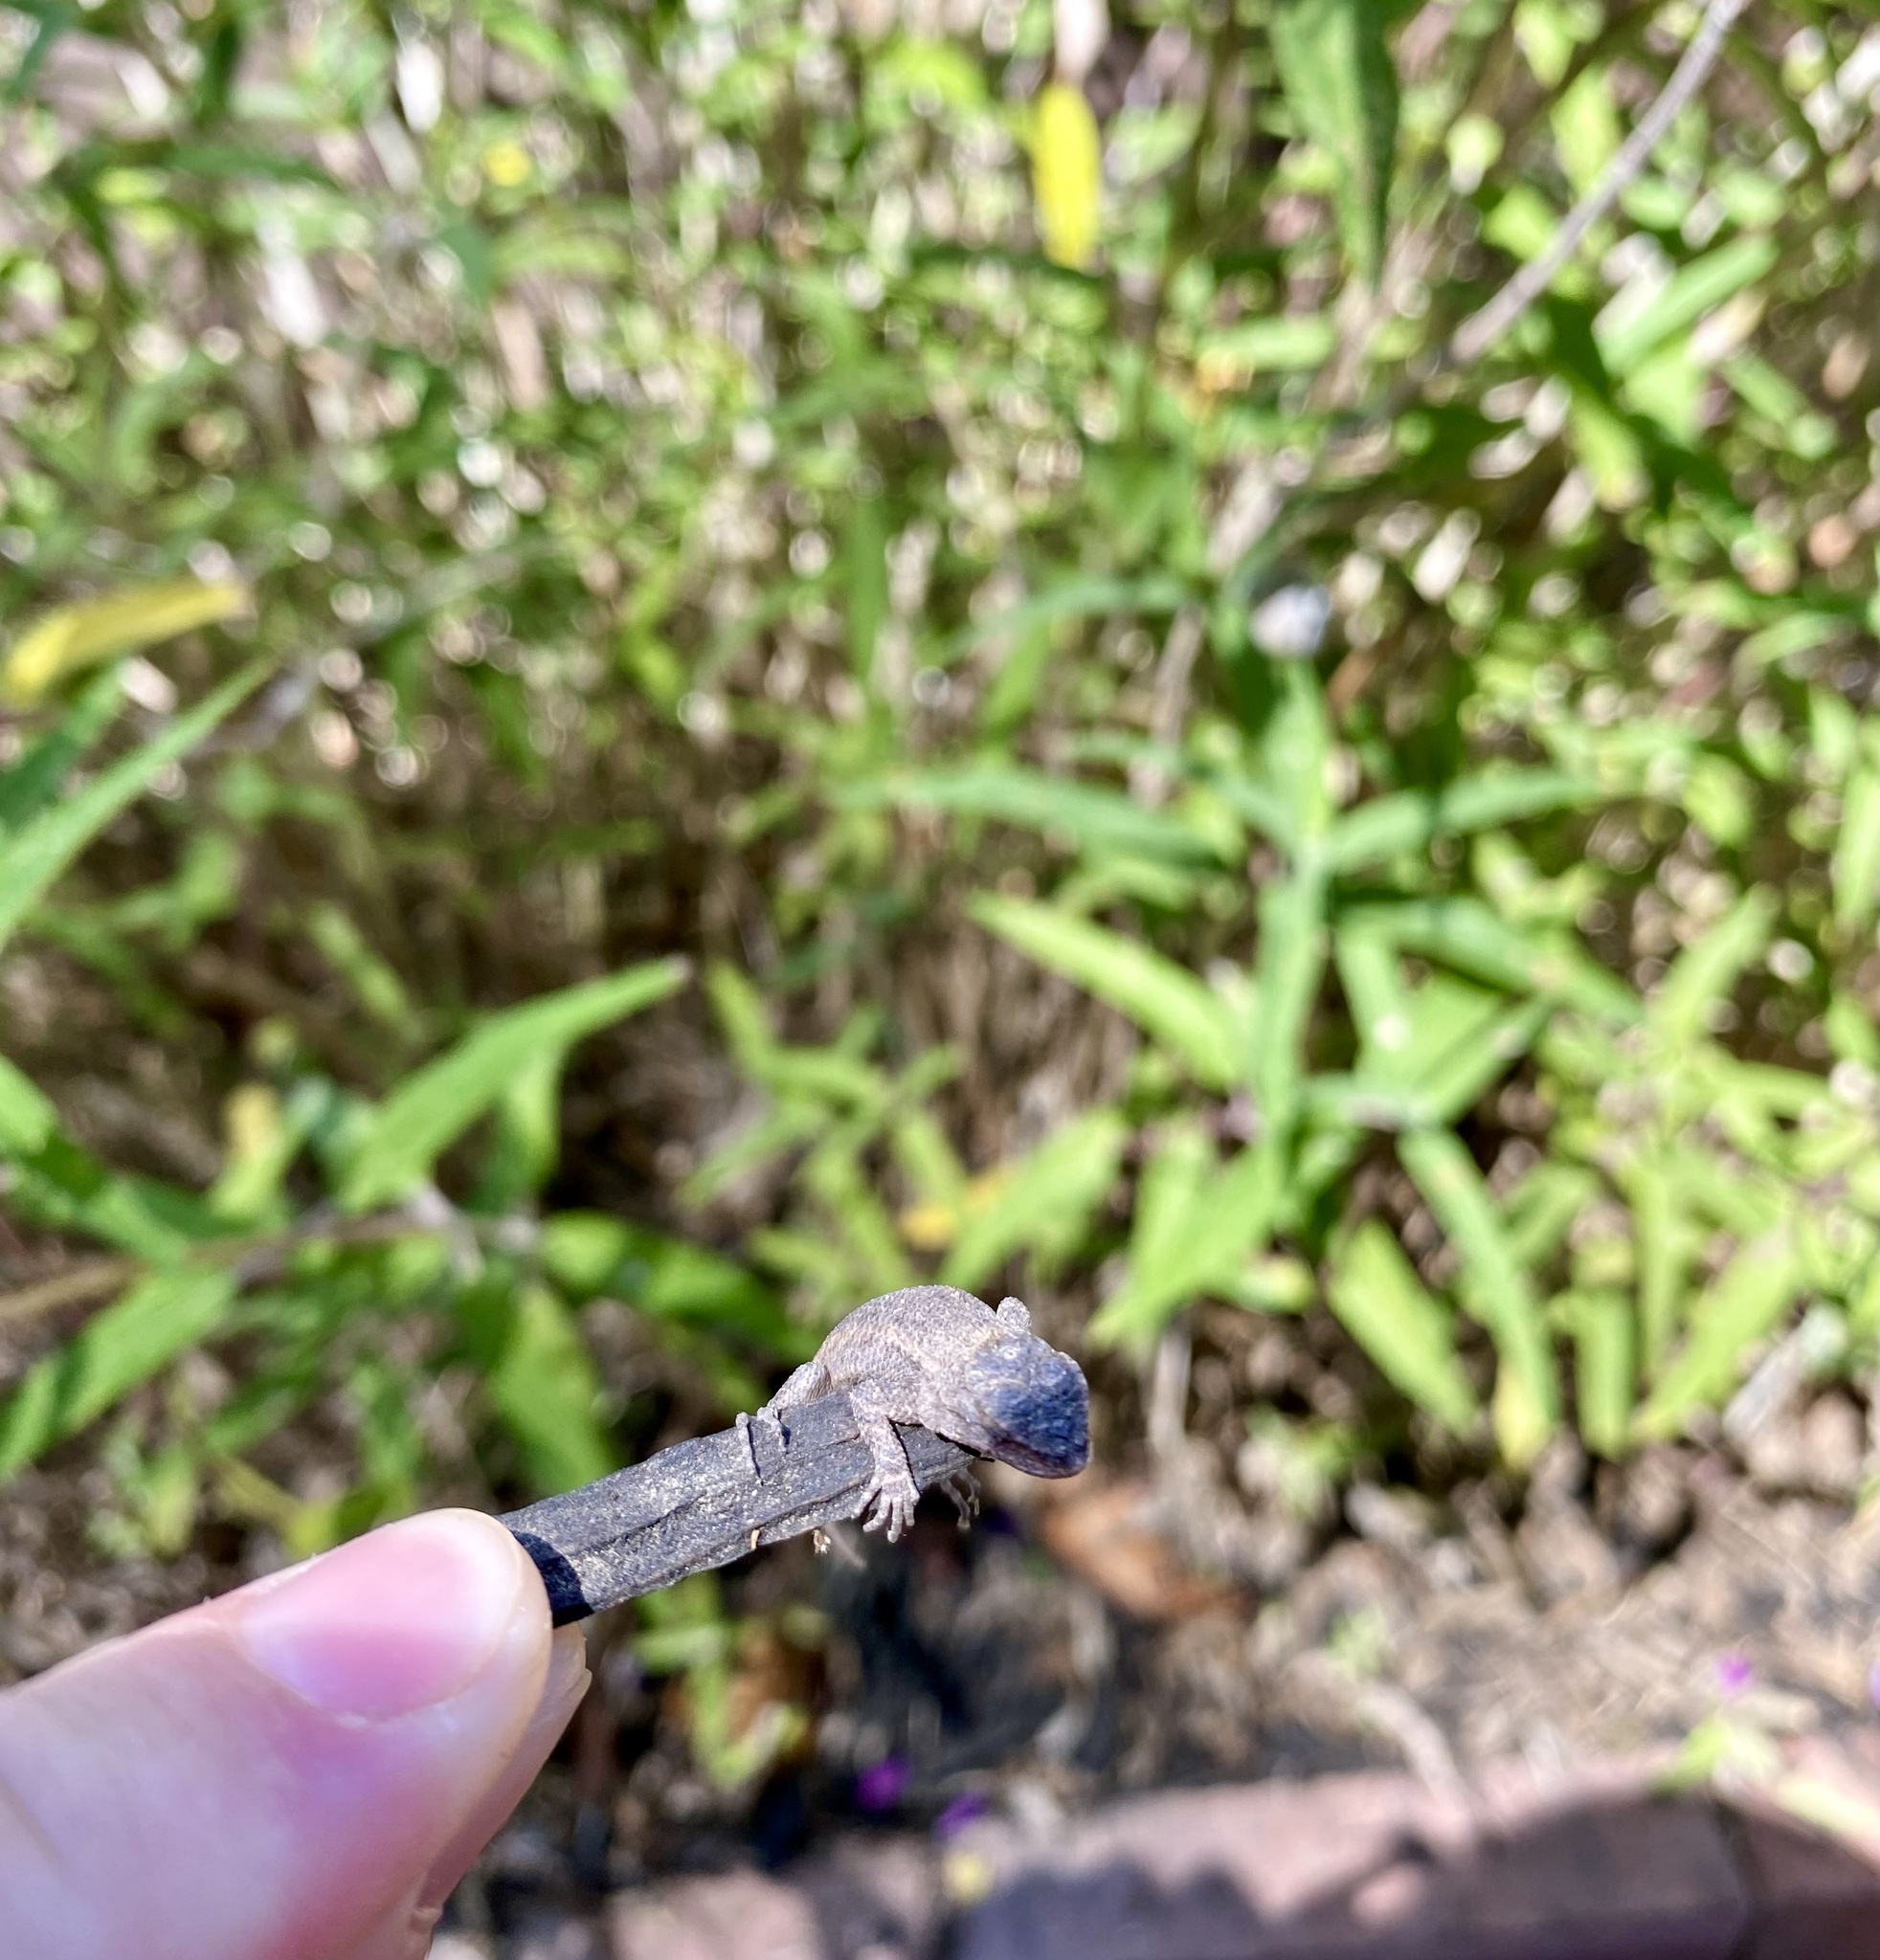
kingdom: Animalia
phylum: Chordata
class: Squamata
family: Phrynosomatidae
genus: Sceloporus
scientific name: Sceloporus occidentalis
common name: Western fence lizard
